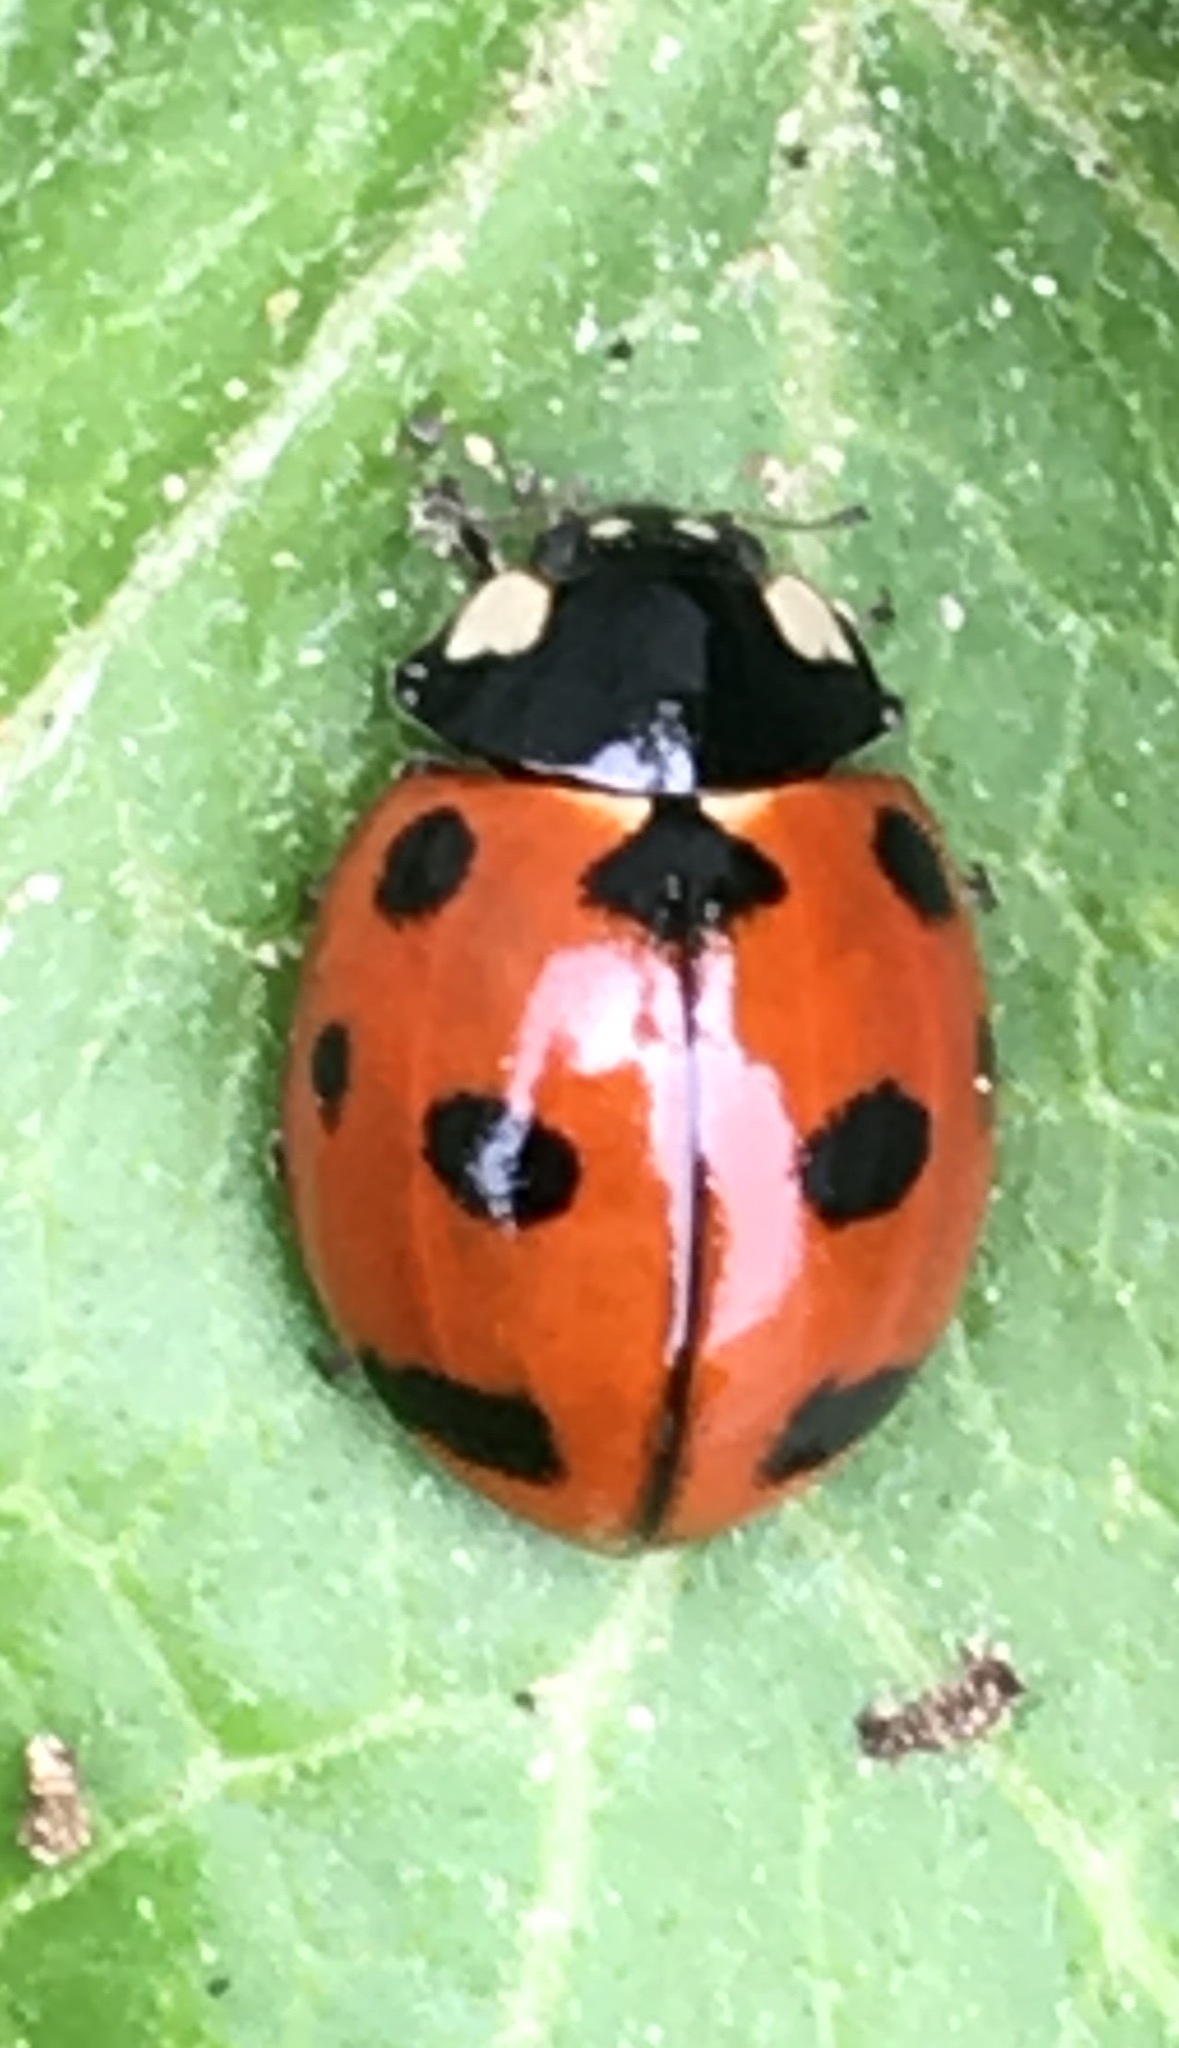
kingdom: Animalia
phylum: Arthropoda
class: Insecta
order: Coleoptera
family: Coccinellidae
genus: Coccinella
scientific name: Coccinella californica
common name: Lady beetle
